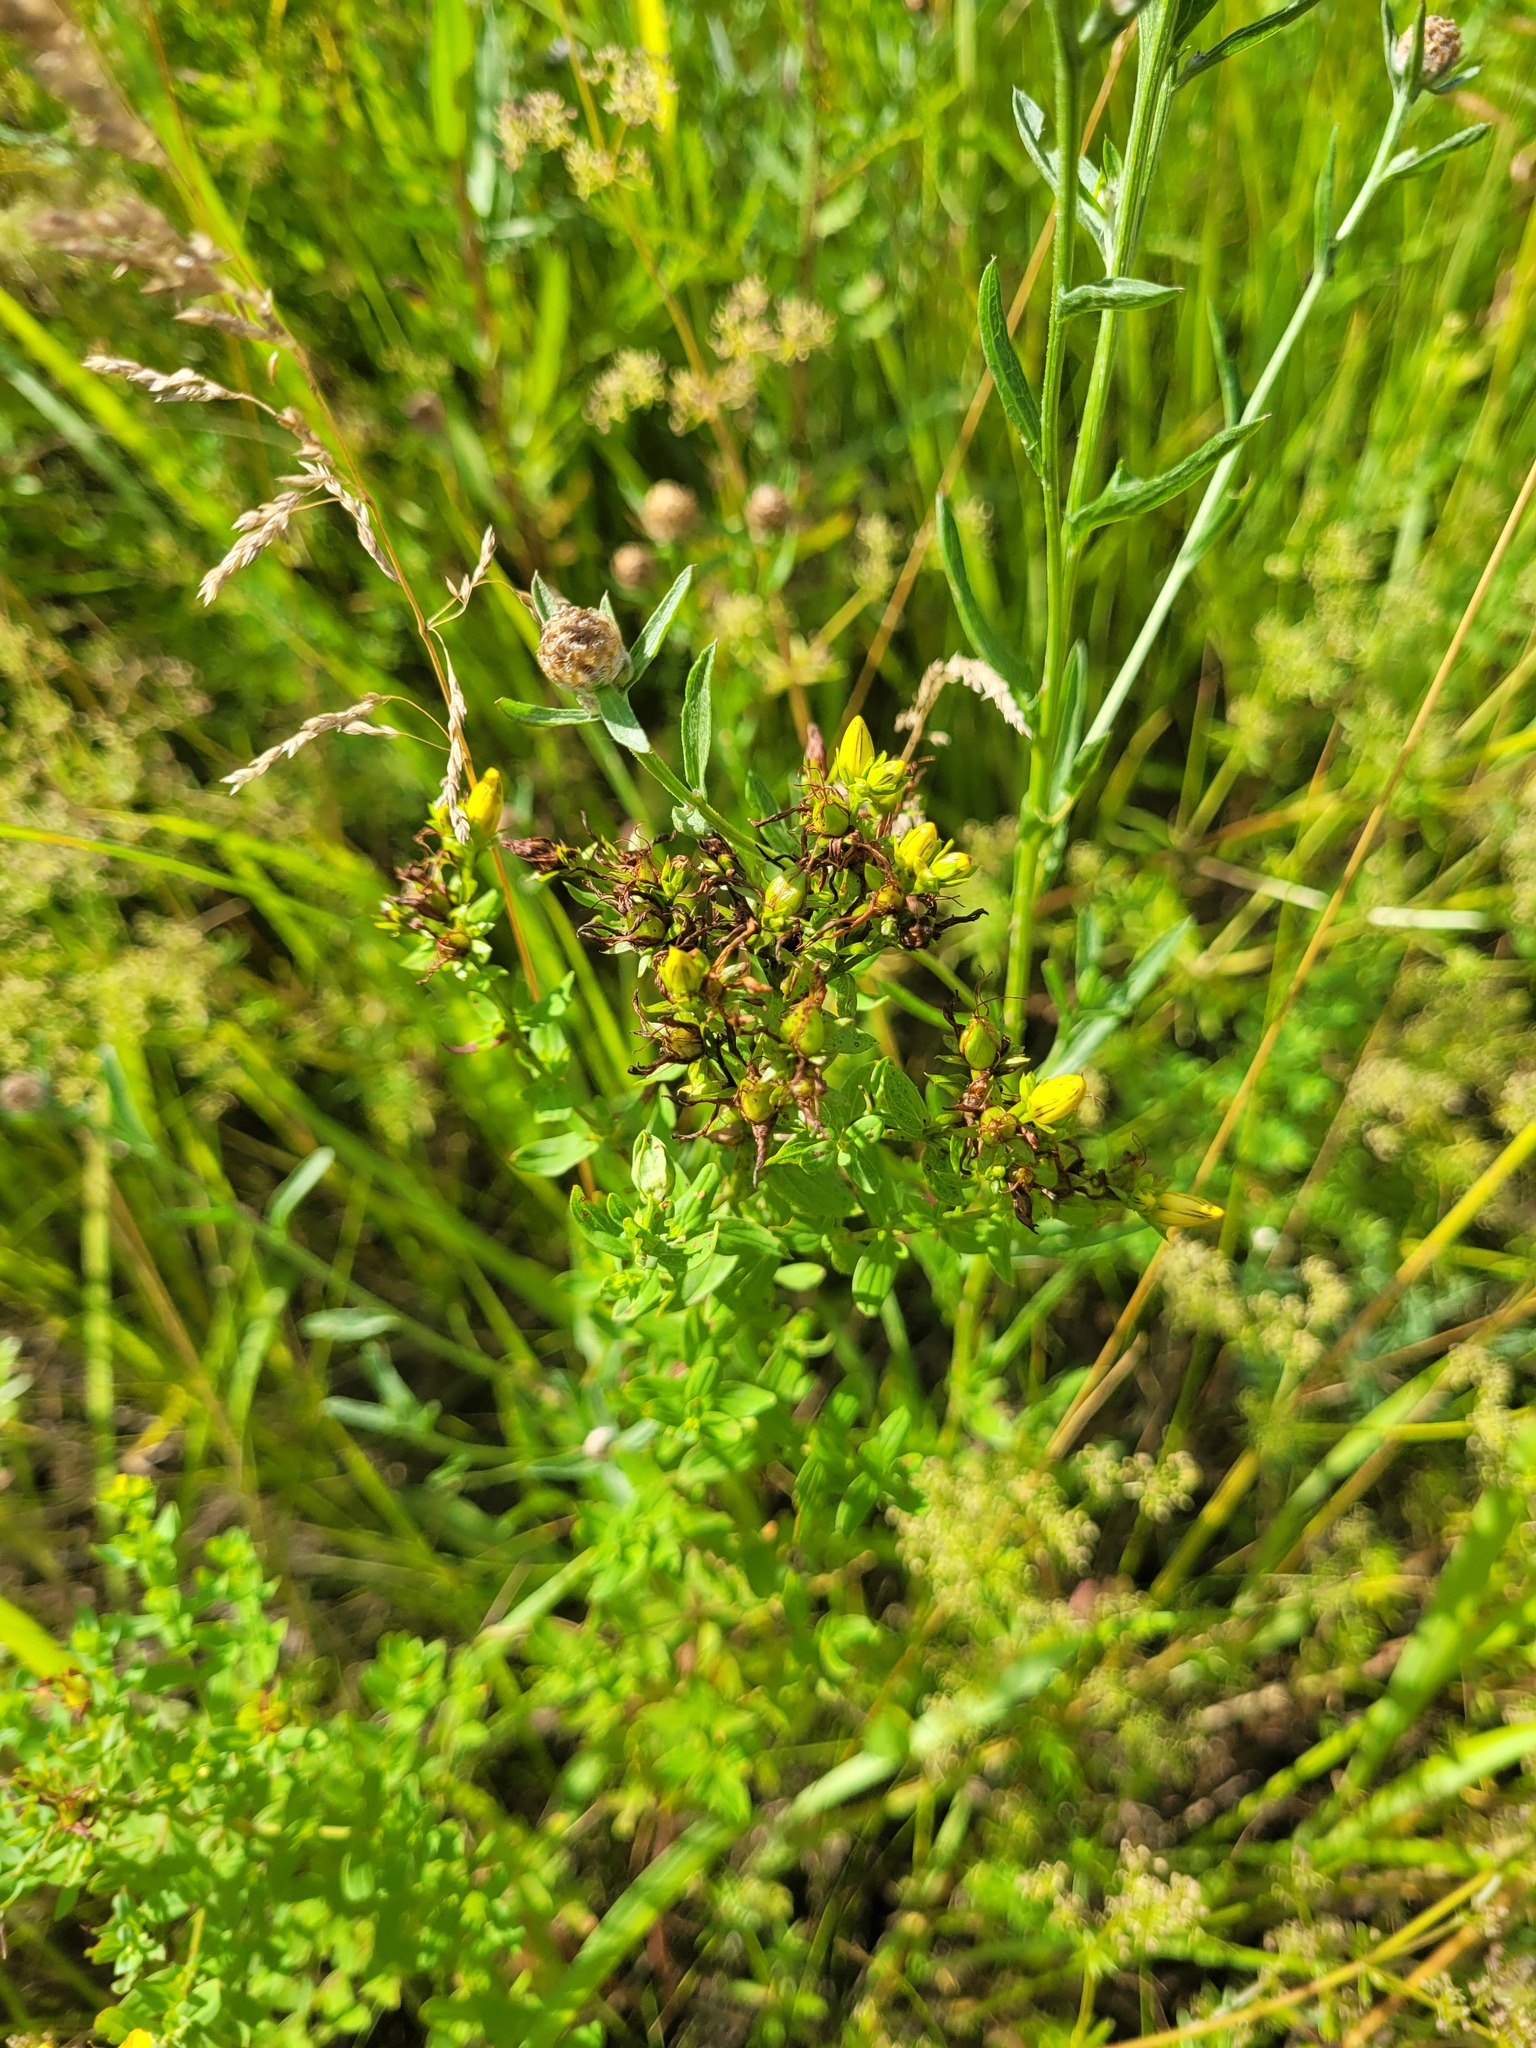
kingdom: Plantae
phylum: Tracheophyta
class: Magnoliopsida
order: Malpighiales
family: Hypericaceae
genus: Hypericum
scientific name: Hypericum perforatum
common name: Common st. johnswort
